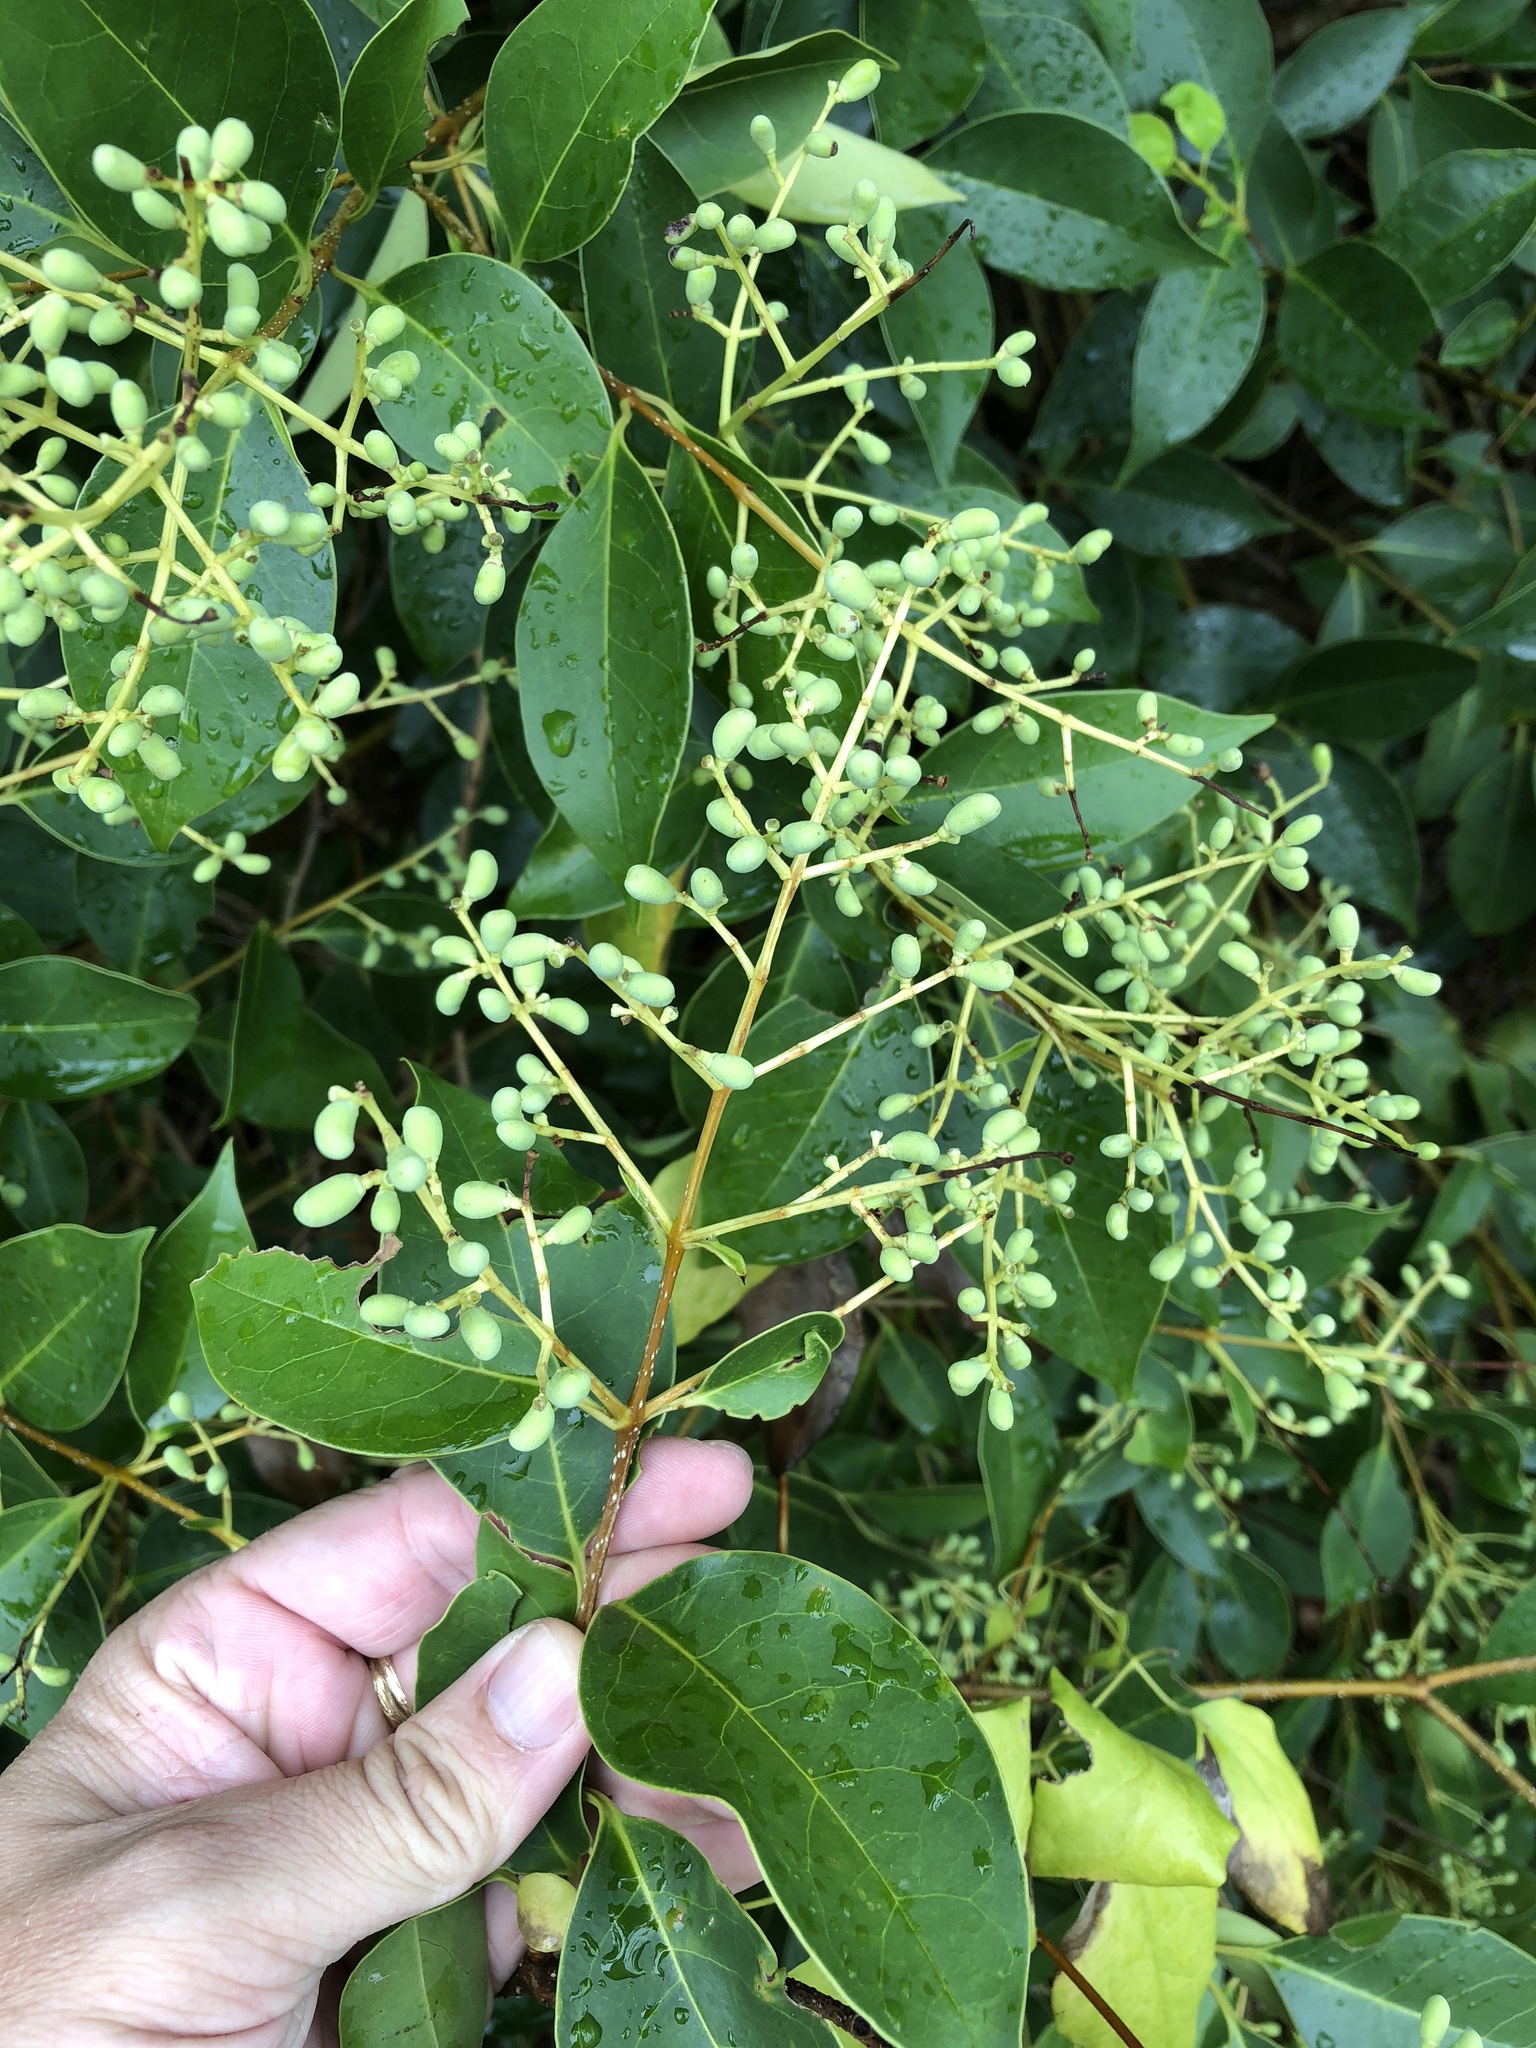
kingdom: Plantae
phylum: Tracheophyta
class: Magnoliopsida
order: Lamiales
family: Oleaceae
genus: Ligustrum
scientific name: Ligustrum lucidum
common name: Glossy privet
